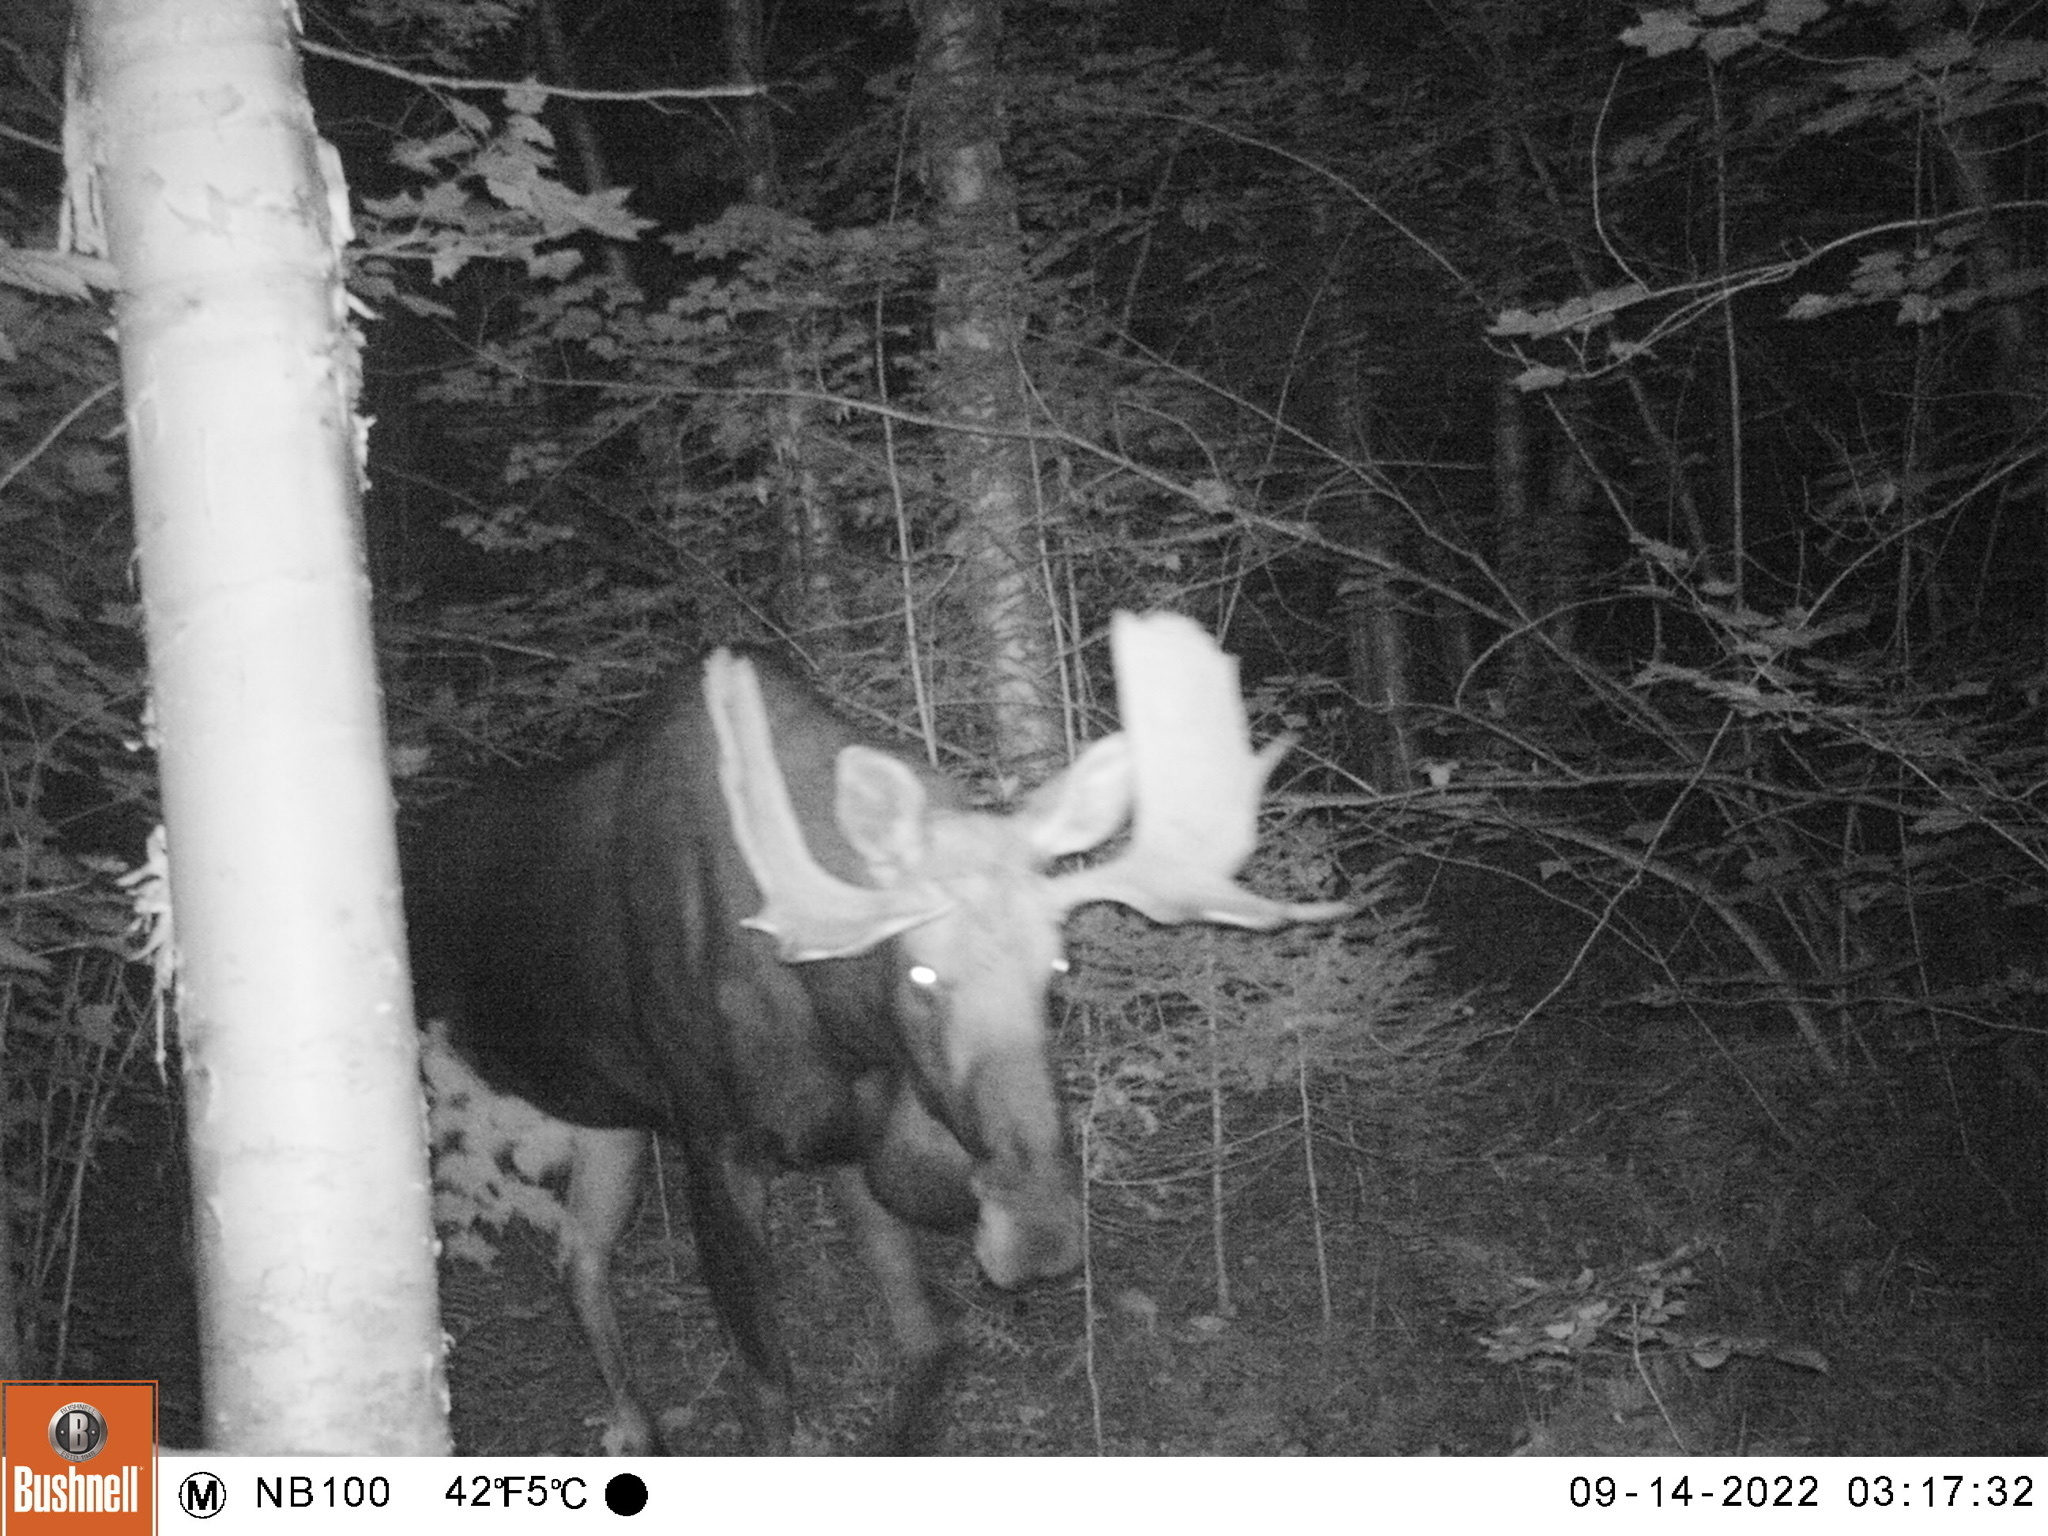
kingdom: Animalia
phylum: Chordata
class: Mammalia
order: Artiodactyla
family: Cervidae
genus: Alces
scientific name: Alces alces
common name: Moose
